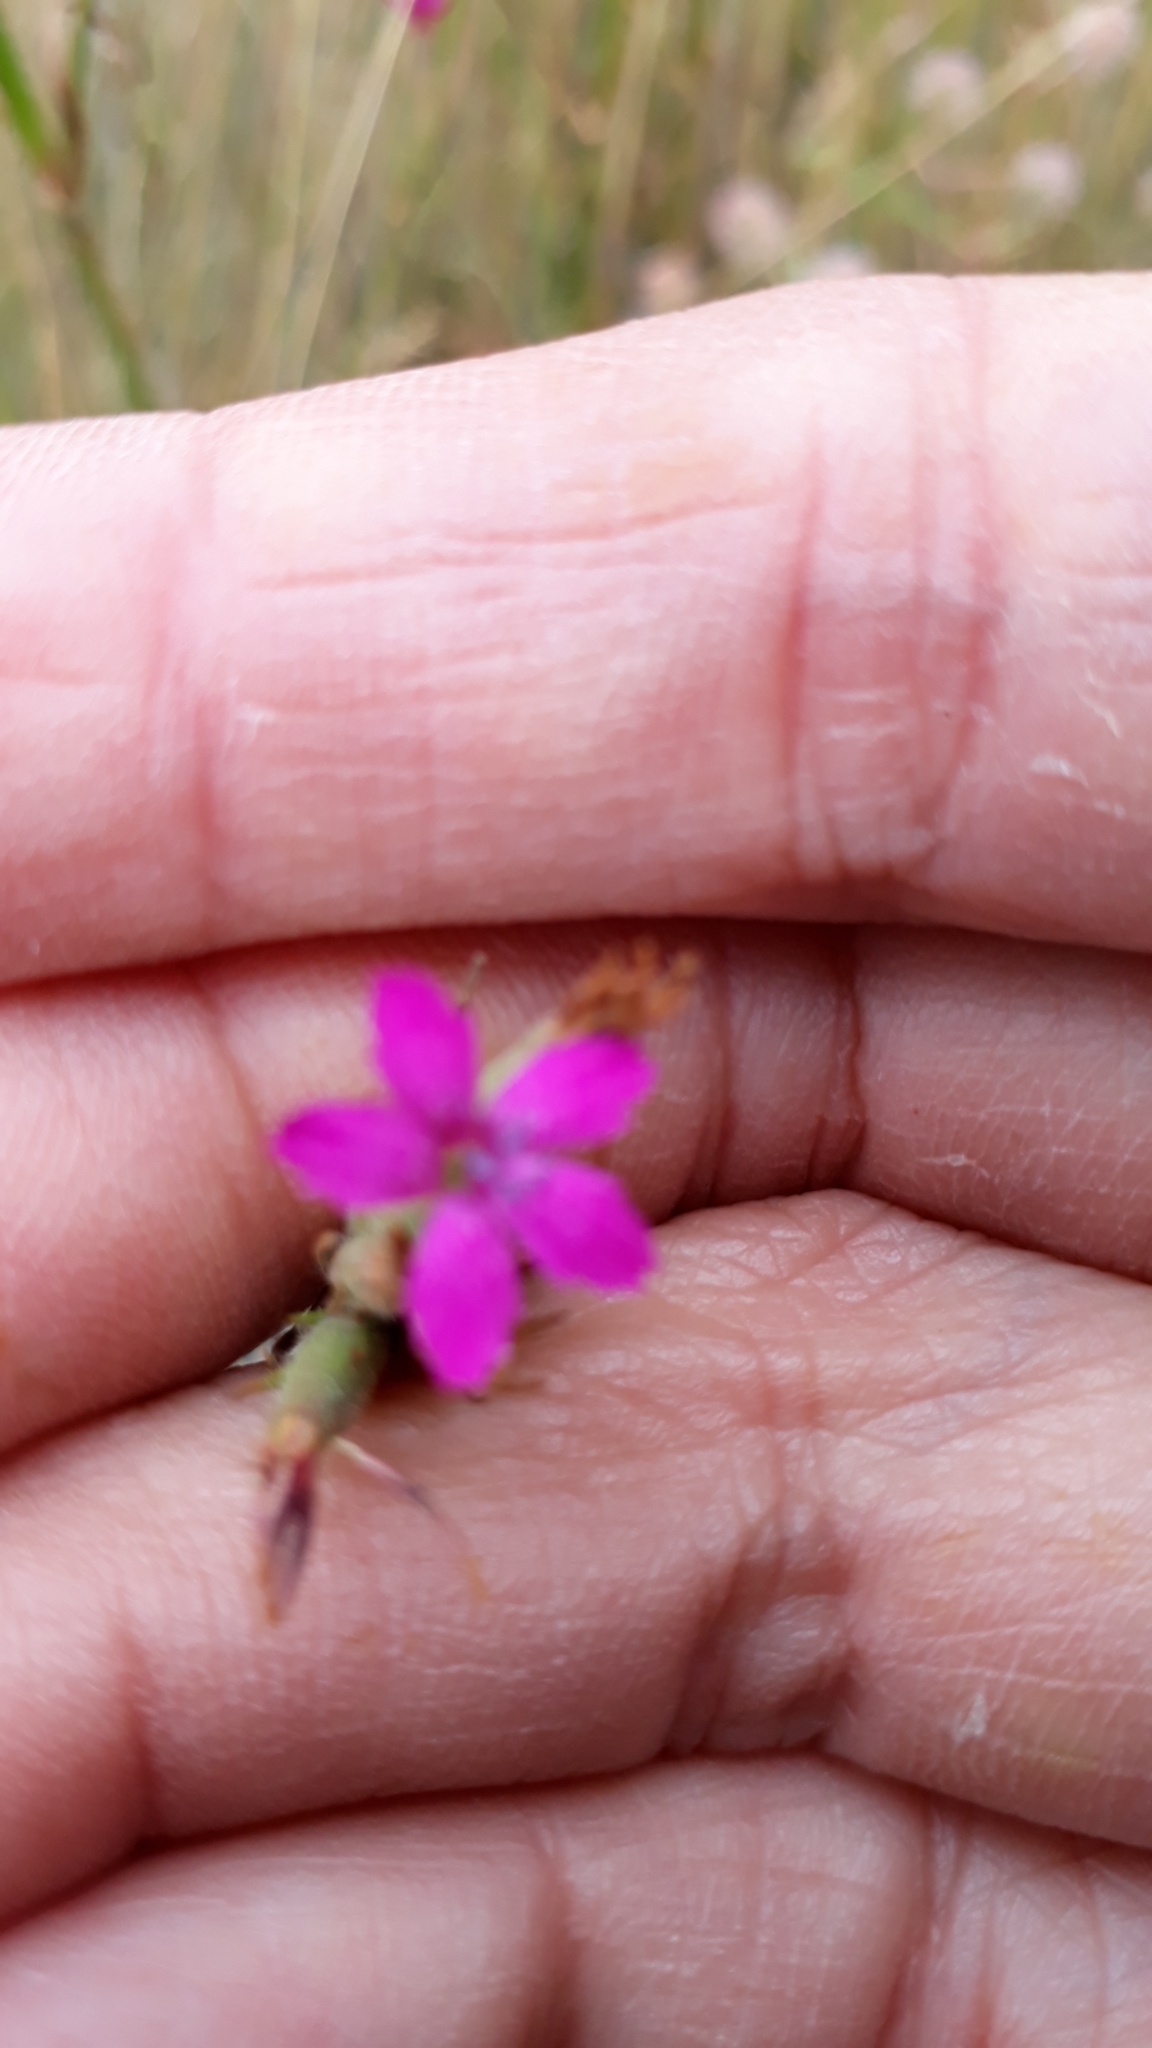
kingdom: Plantae
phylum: Tracheophyta
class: Magnoliopsida
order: Caryophyllales
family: Caryophyllaceae
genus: Dianthus
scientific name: Dianthus armeria
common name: Deptford pink
